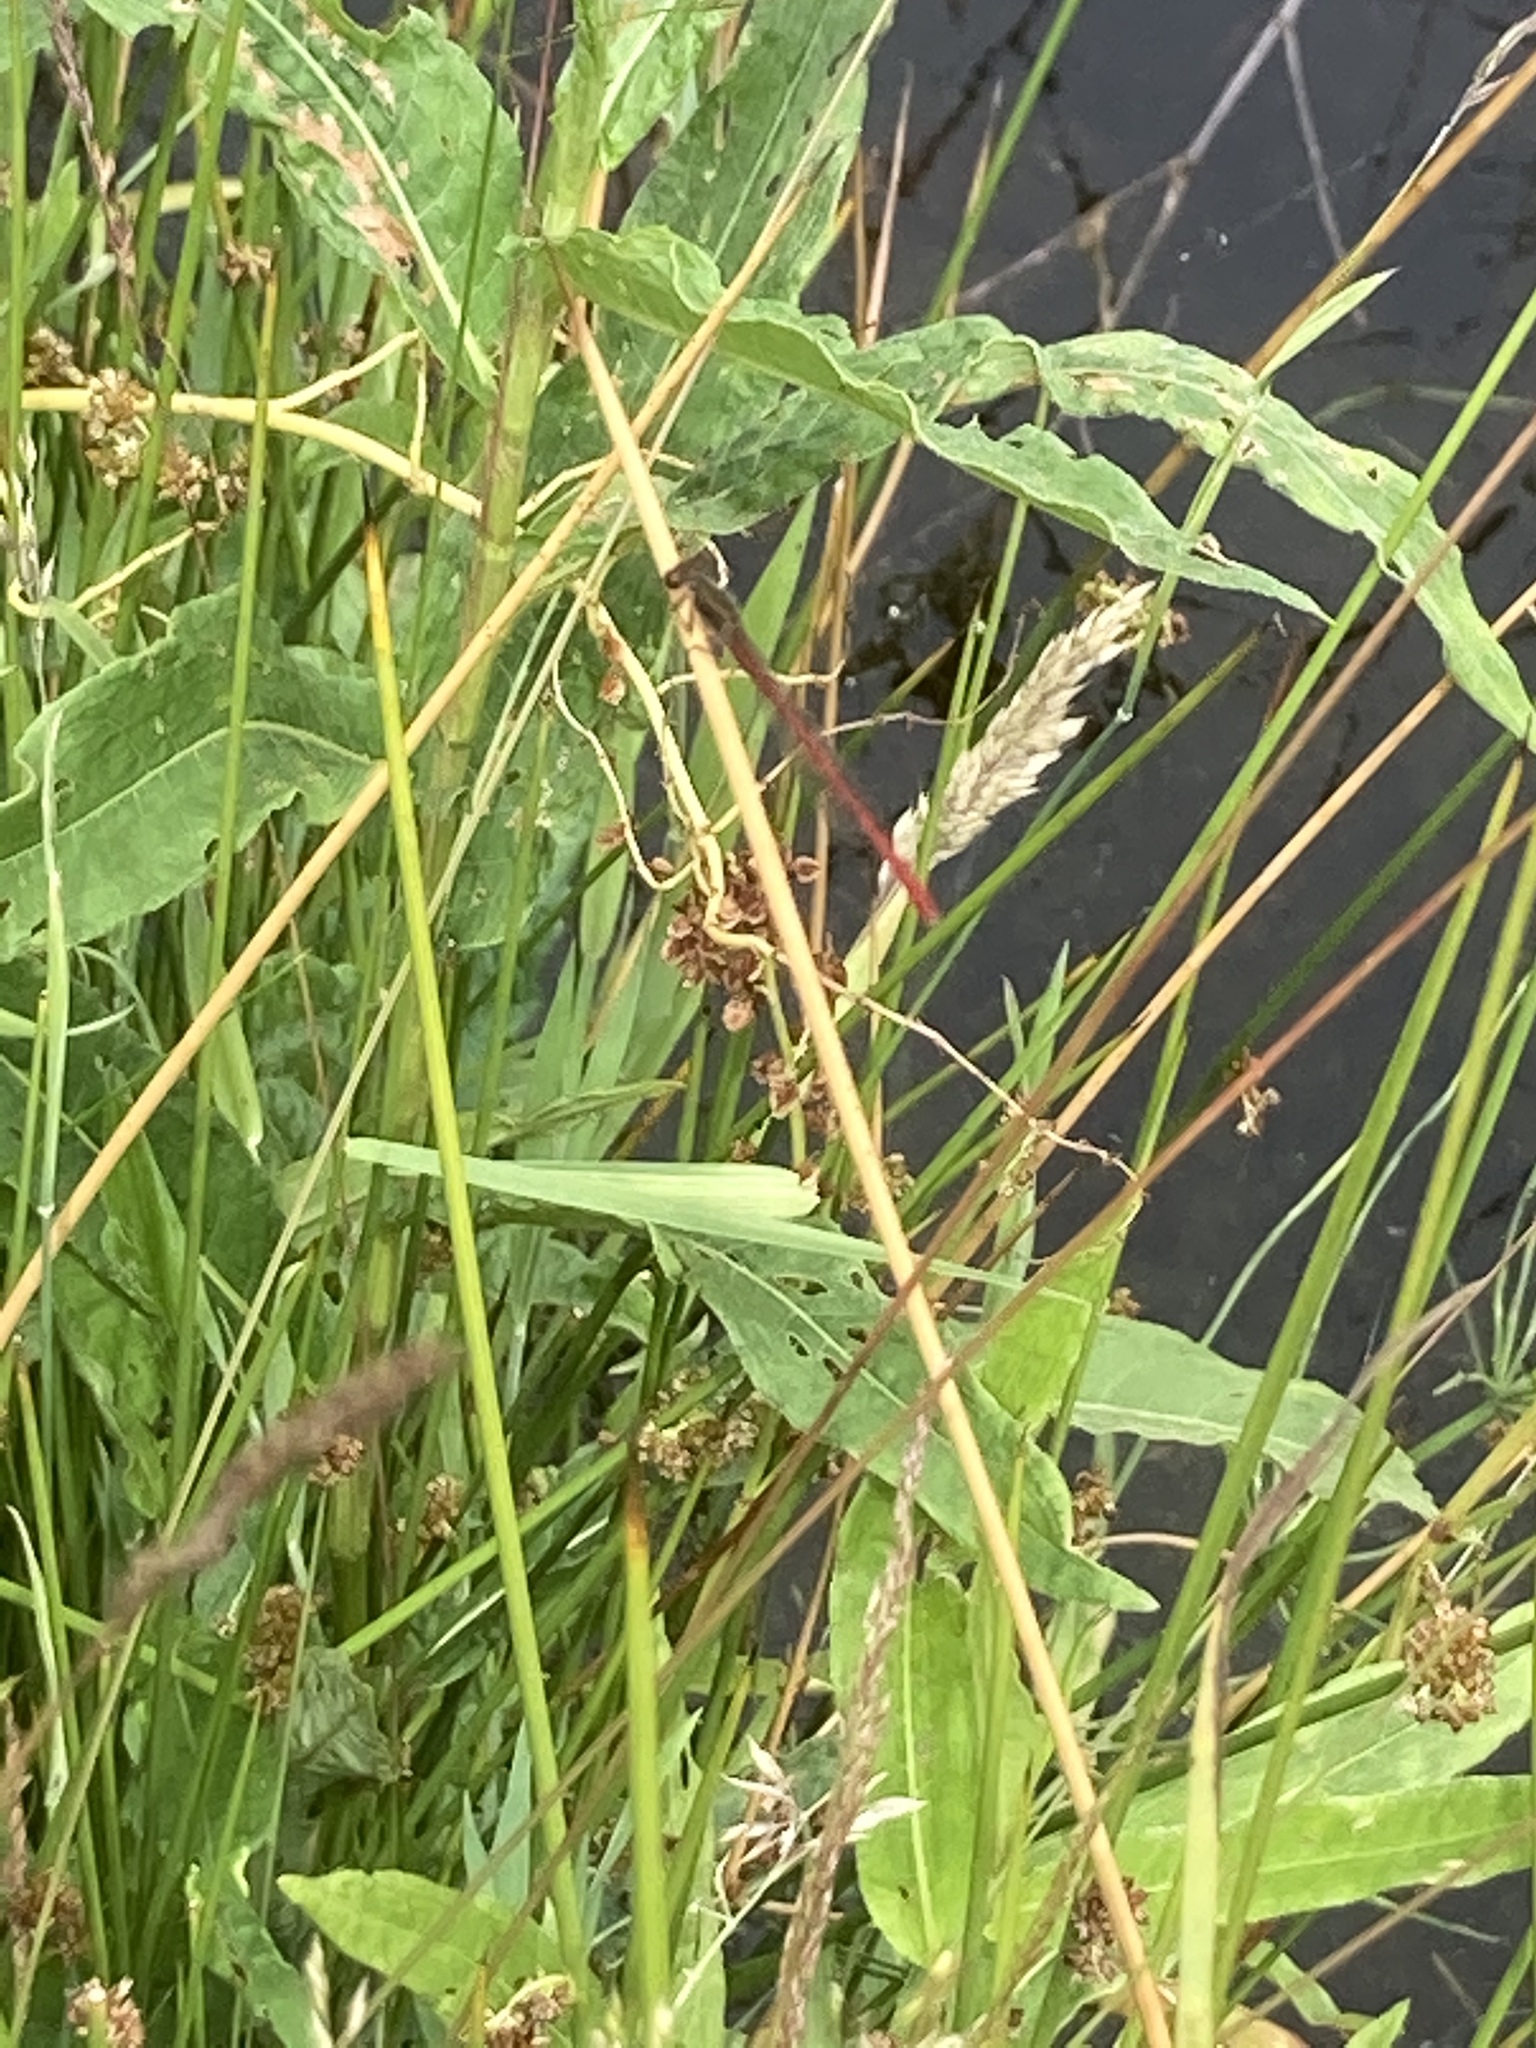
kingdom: Animalia
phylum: Arthropoda
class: Insecta
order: Odonata
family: Coenagrionidae
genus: Ceriagrion
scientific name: Ceriagrion tenellum
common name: Small red damselfly
